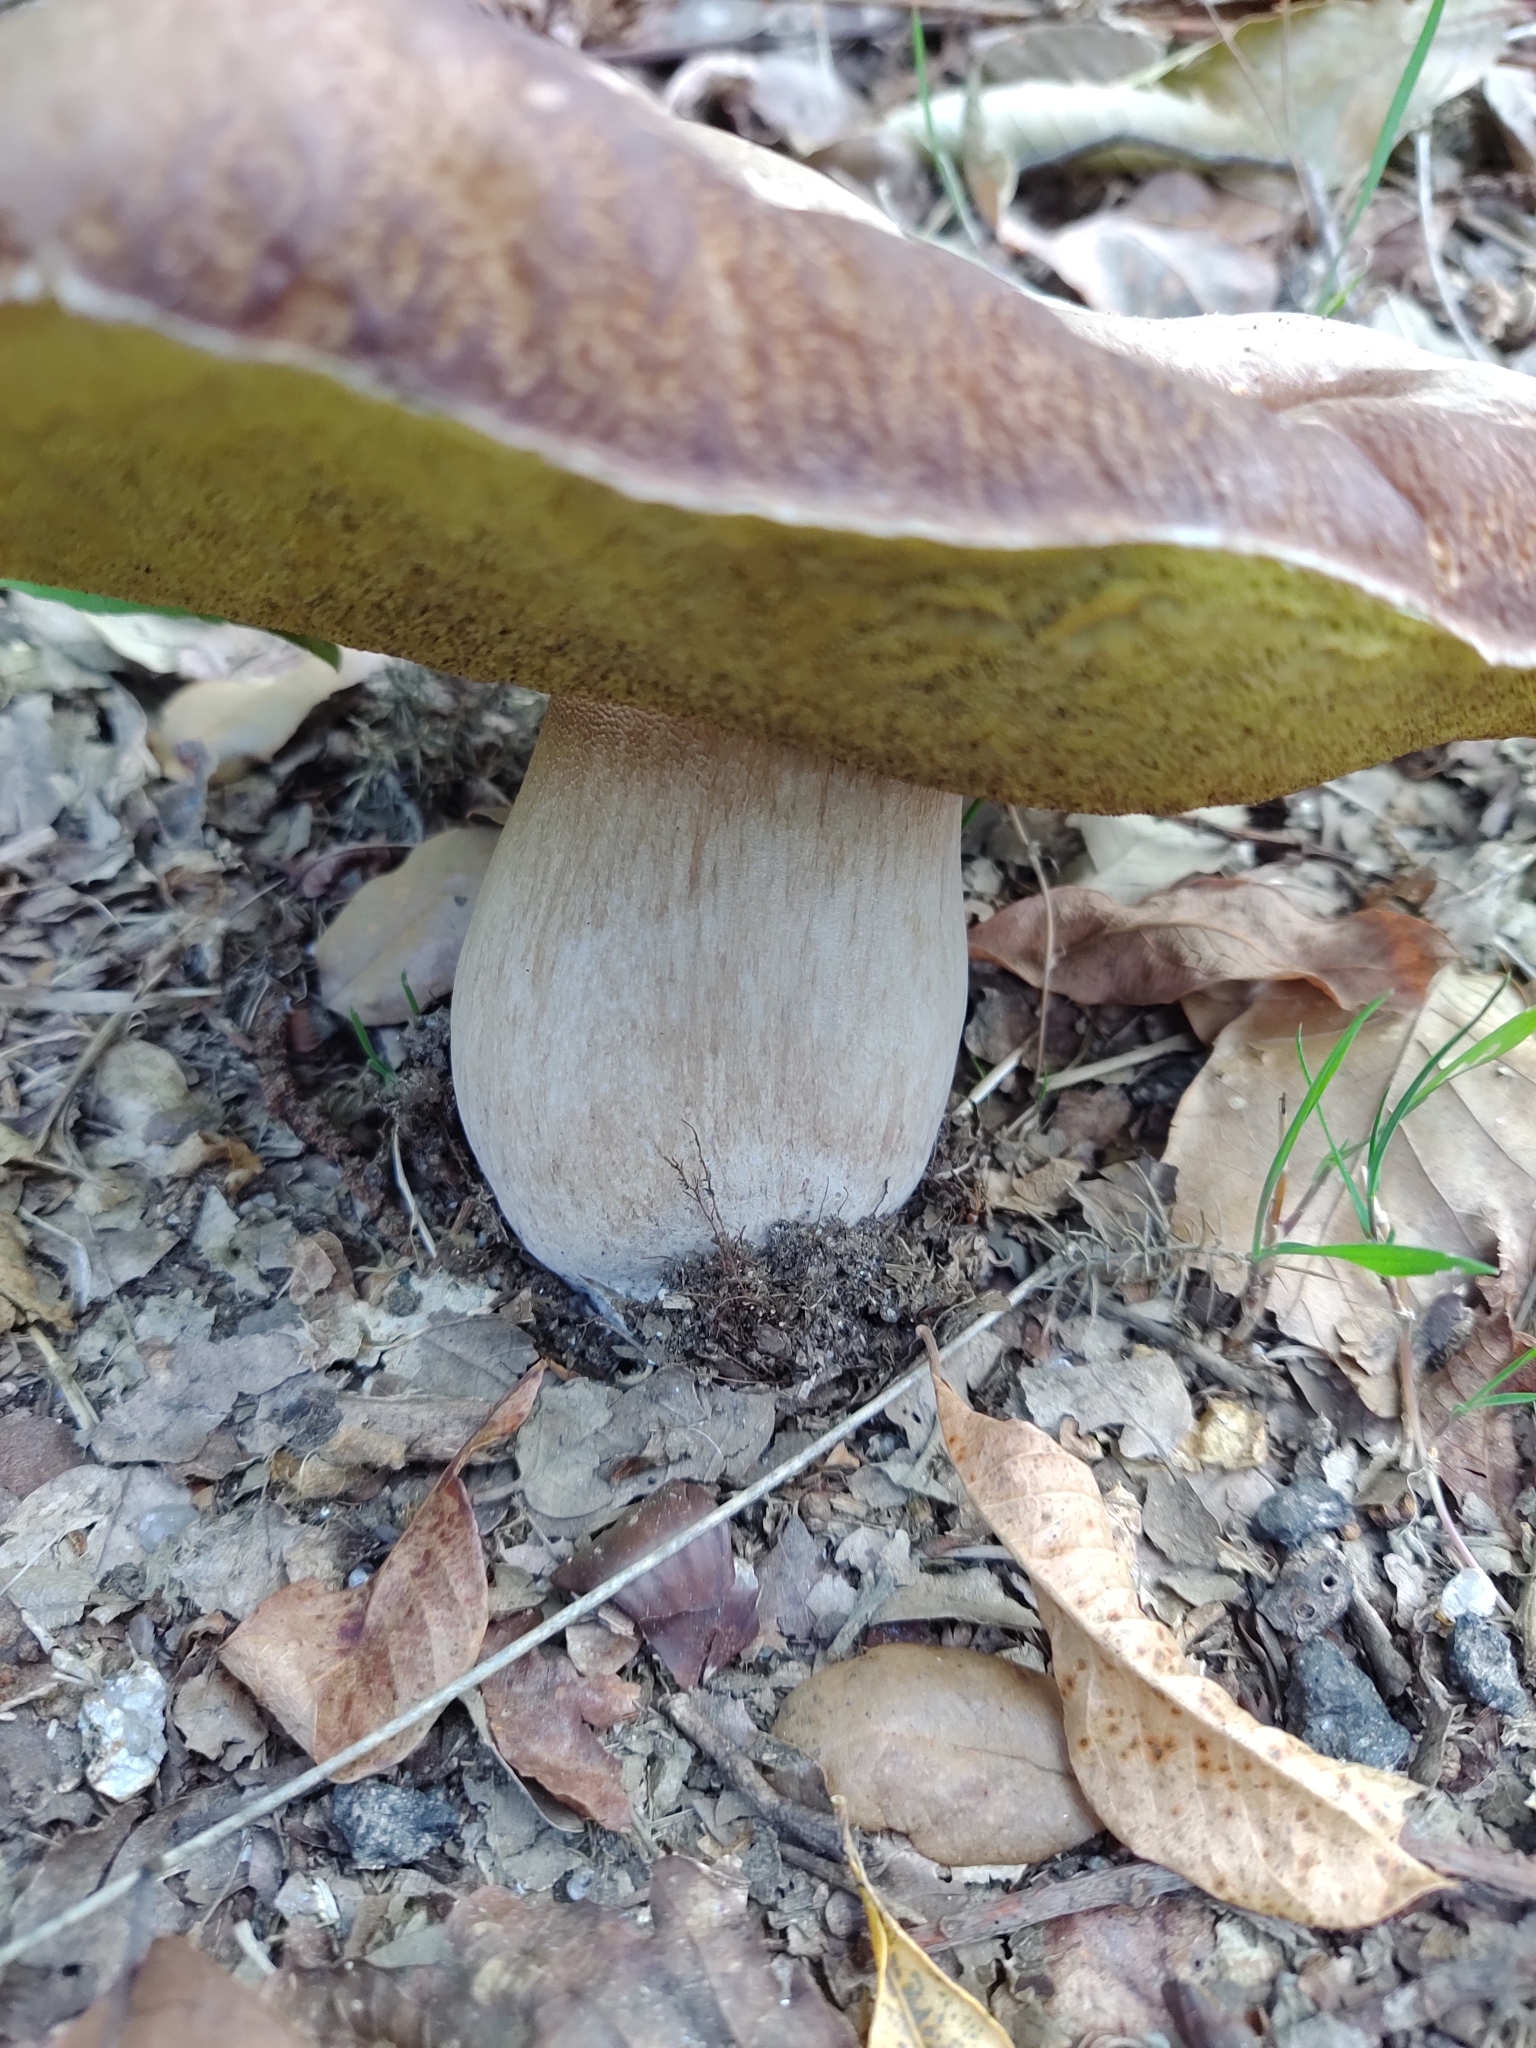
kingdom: Fungi
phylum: Basidiomycota
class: Agaricomycetes
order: Boletales
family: Boletaceae
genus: Boletus
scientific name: Boletus edulis
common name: Cep
